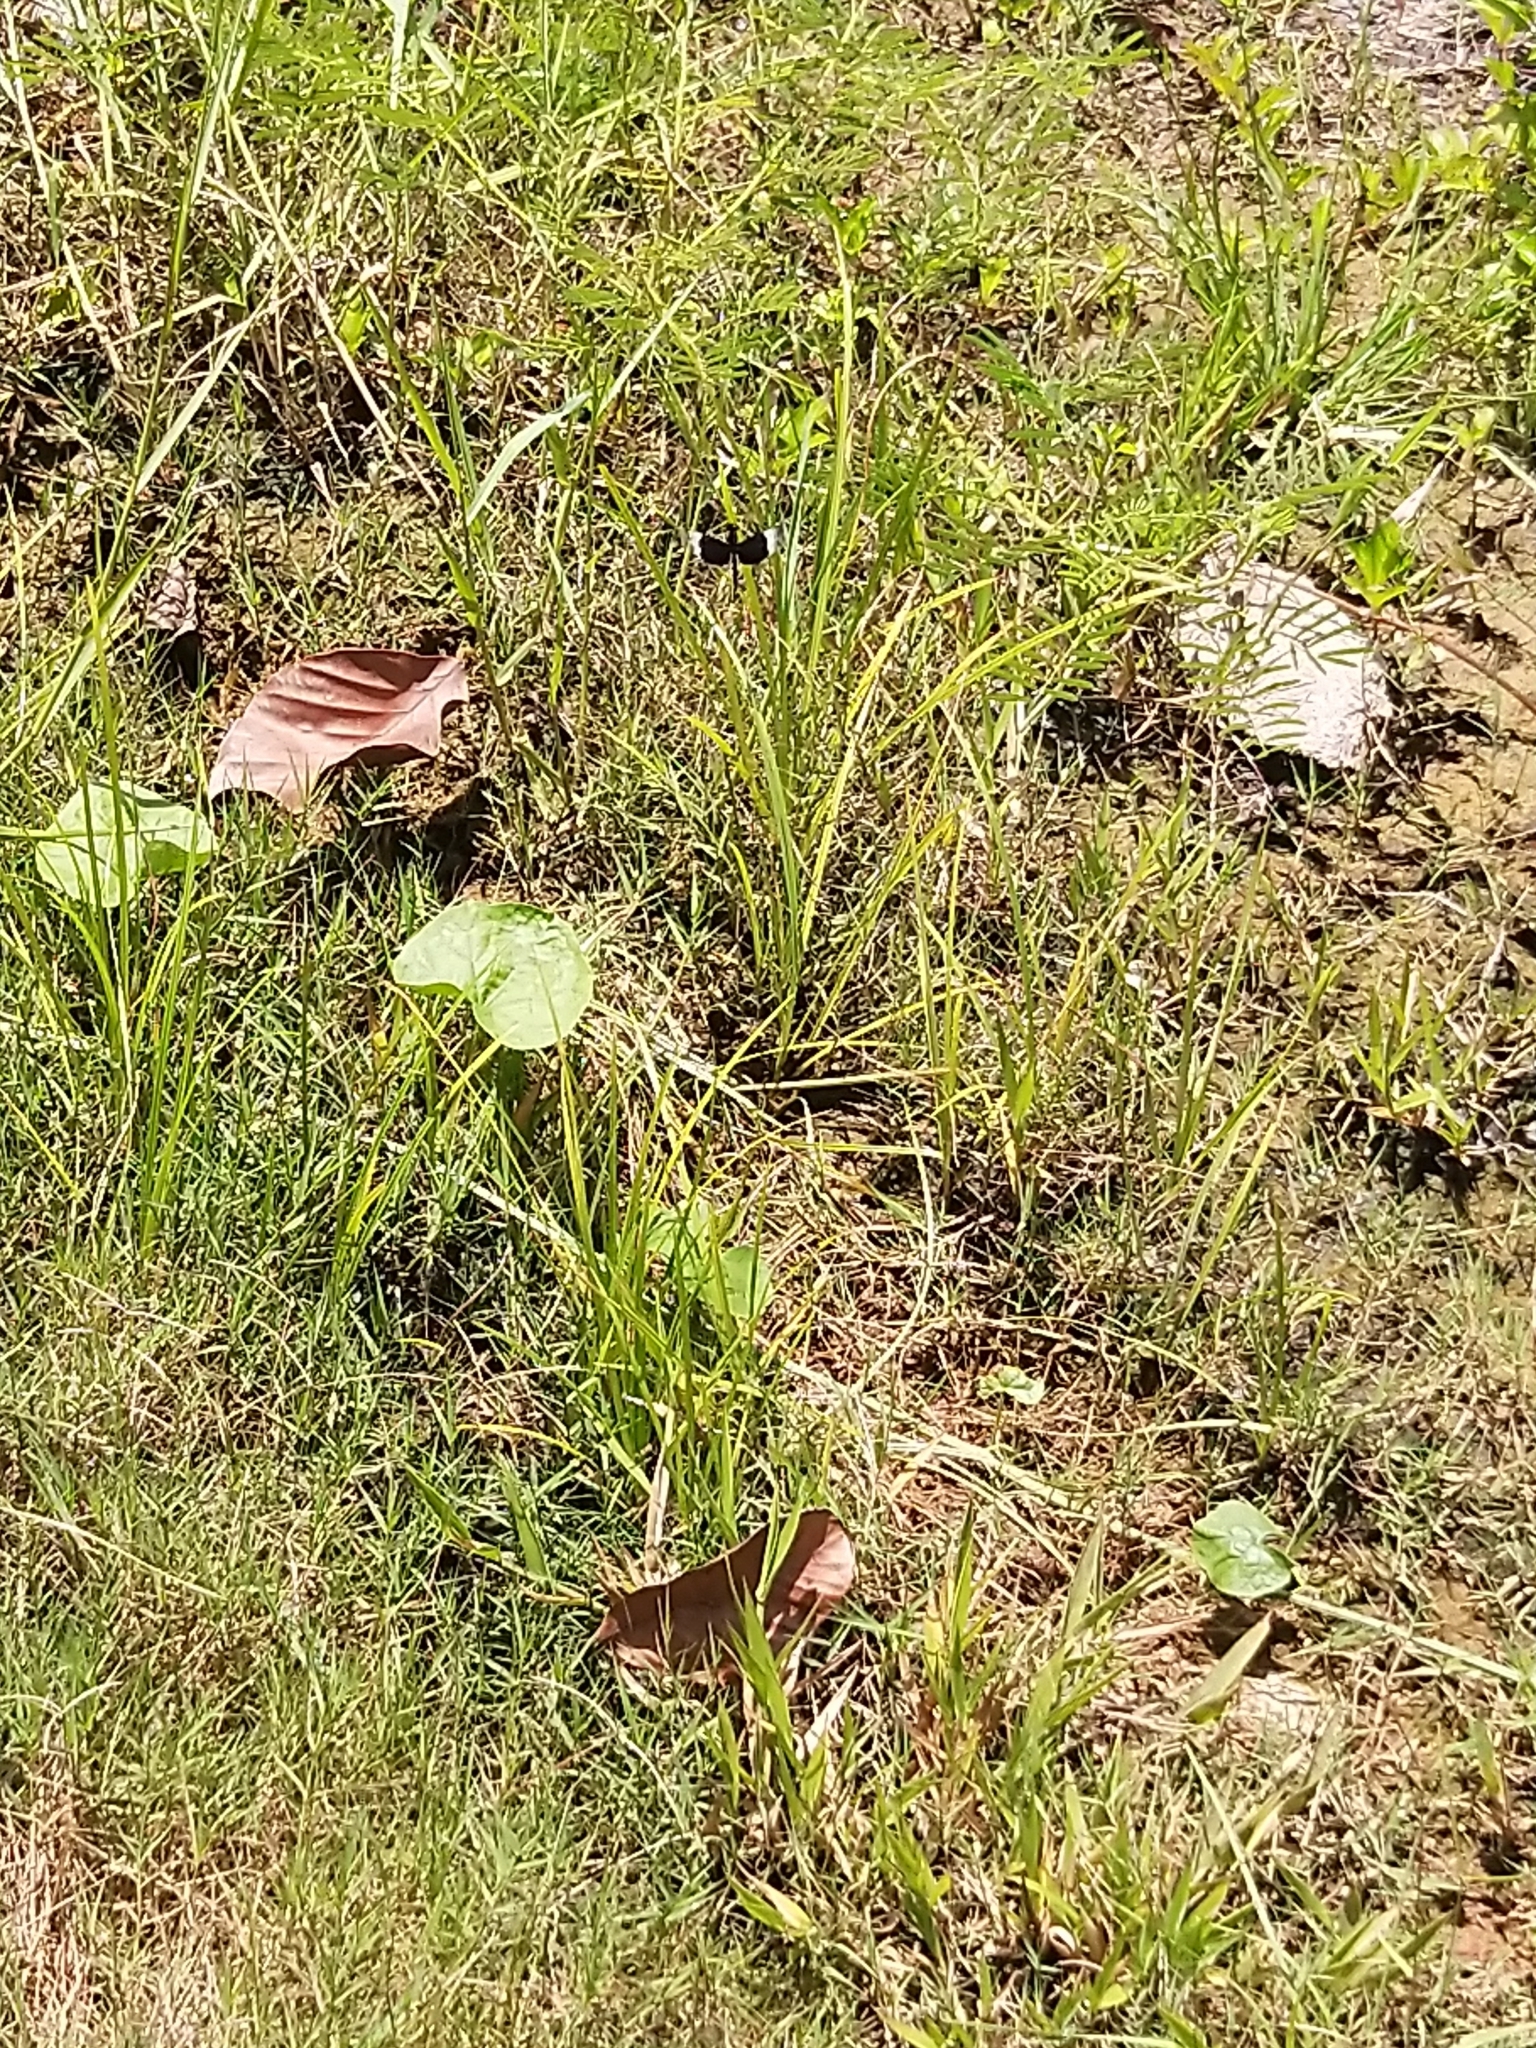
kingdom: Animalia
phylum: Arthropoda
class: Insecta
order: Odonata
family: Libellulidae
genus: Neurothemis
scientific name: Neurothemis tullia
